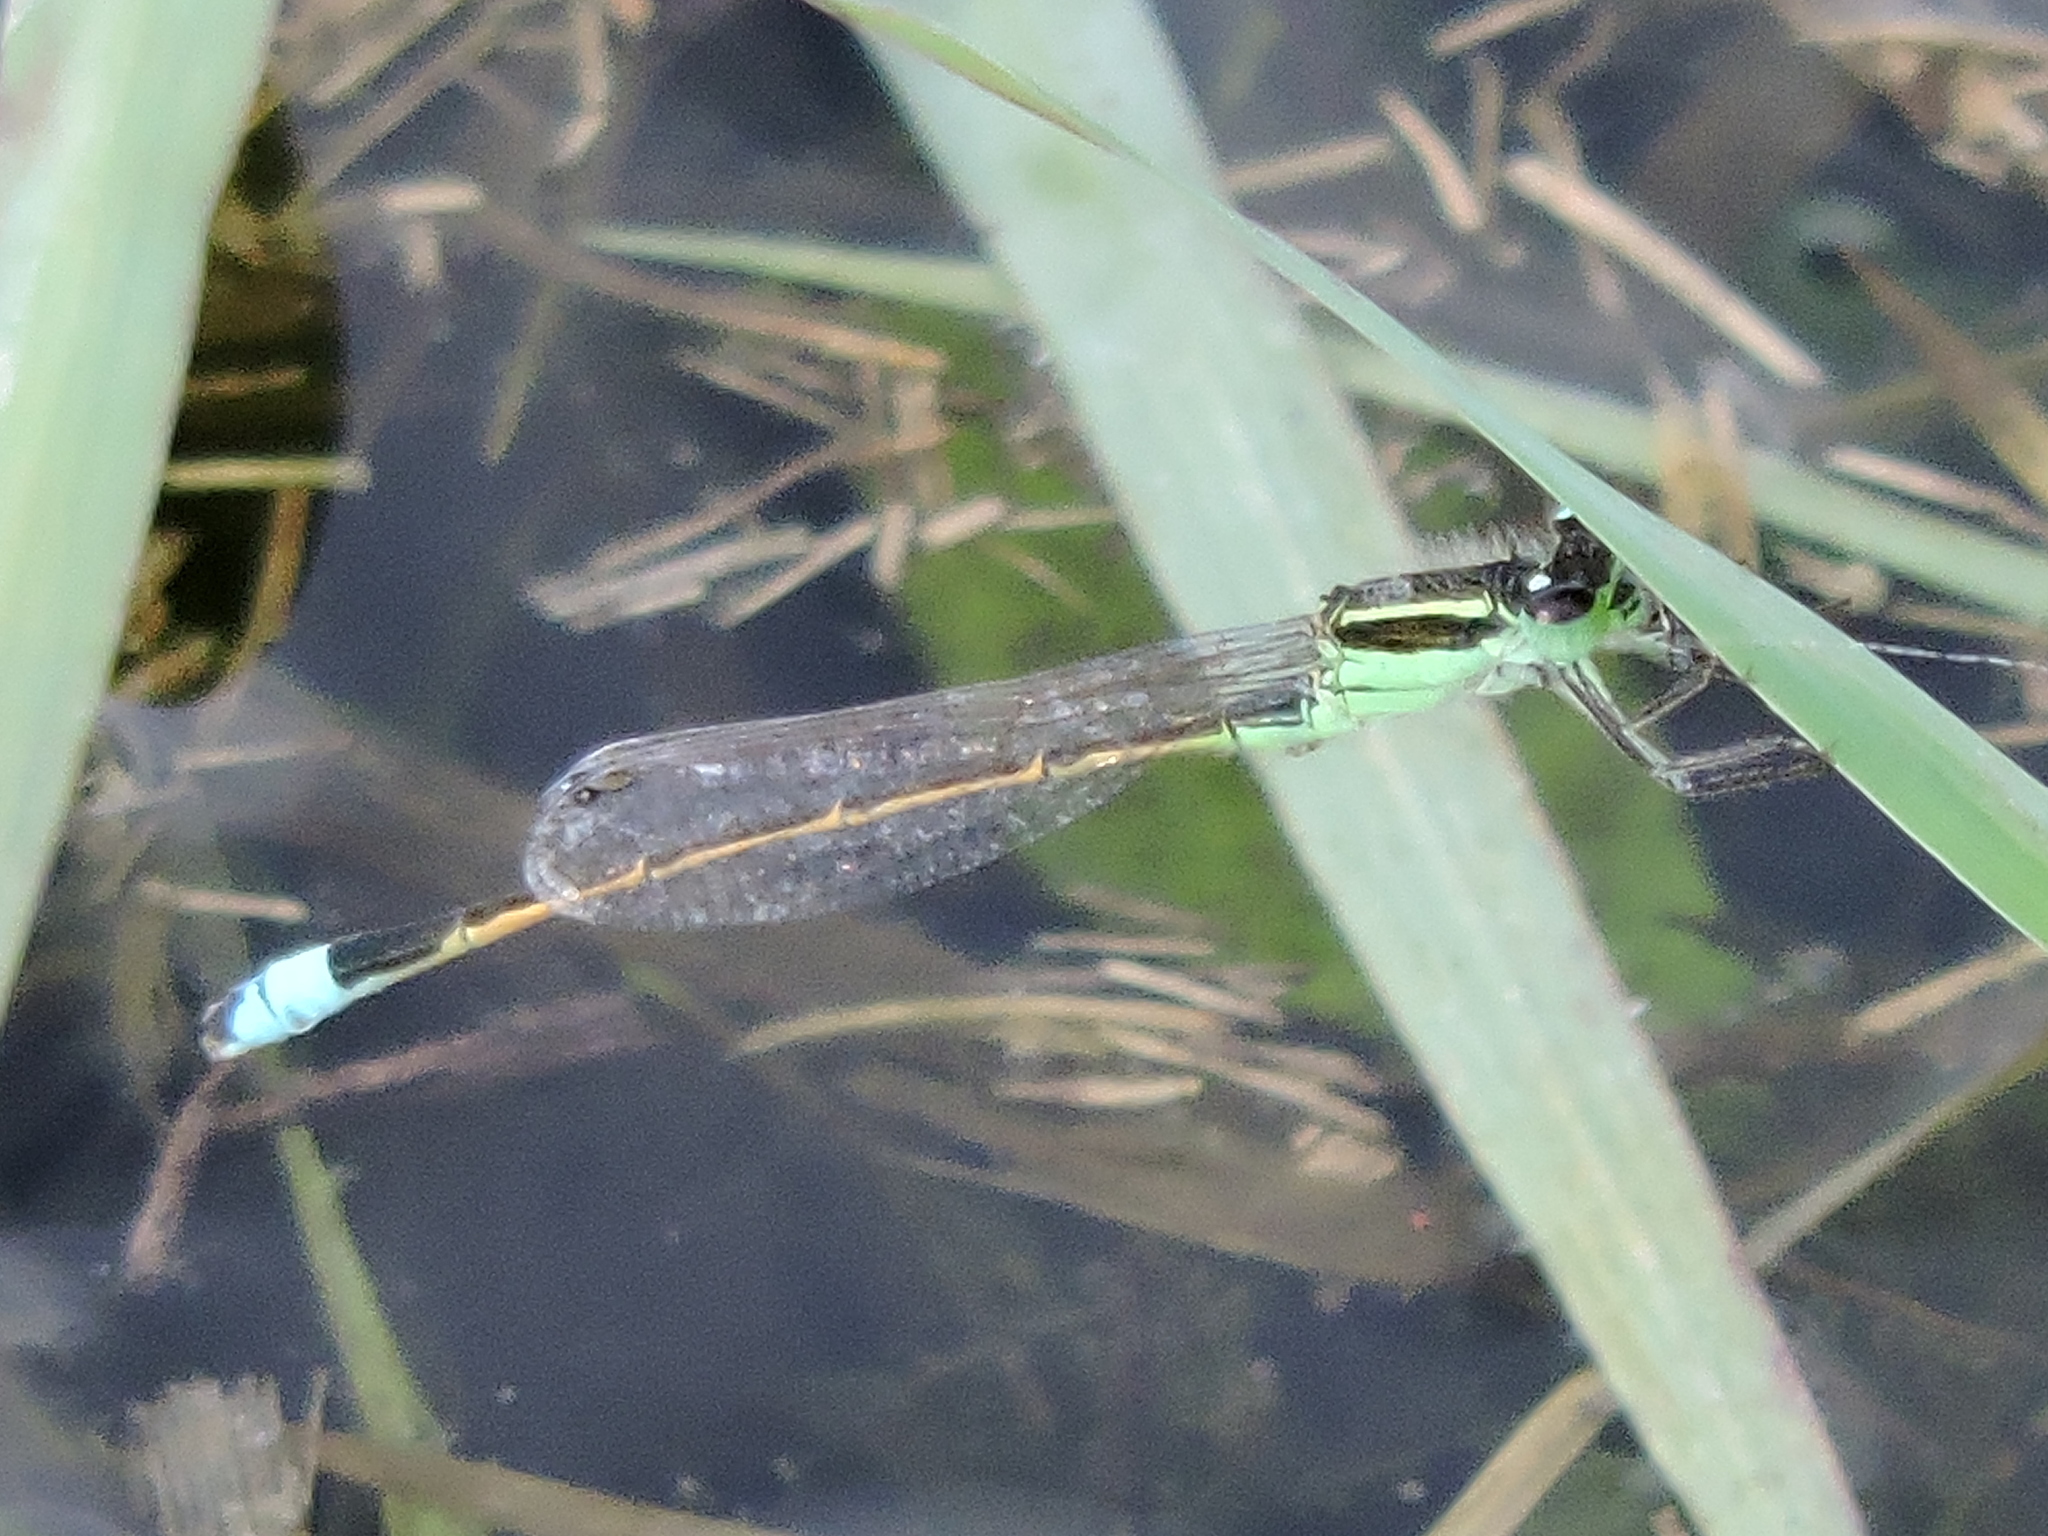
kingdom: Animalia
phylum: Arthropoda
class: Insecta
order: Odonata
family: Coenagrionidae
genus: Ischnura
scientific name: Ischnura ramburii
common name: Rambur's forktail
